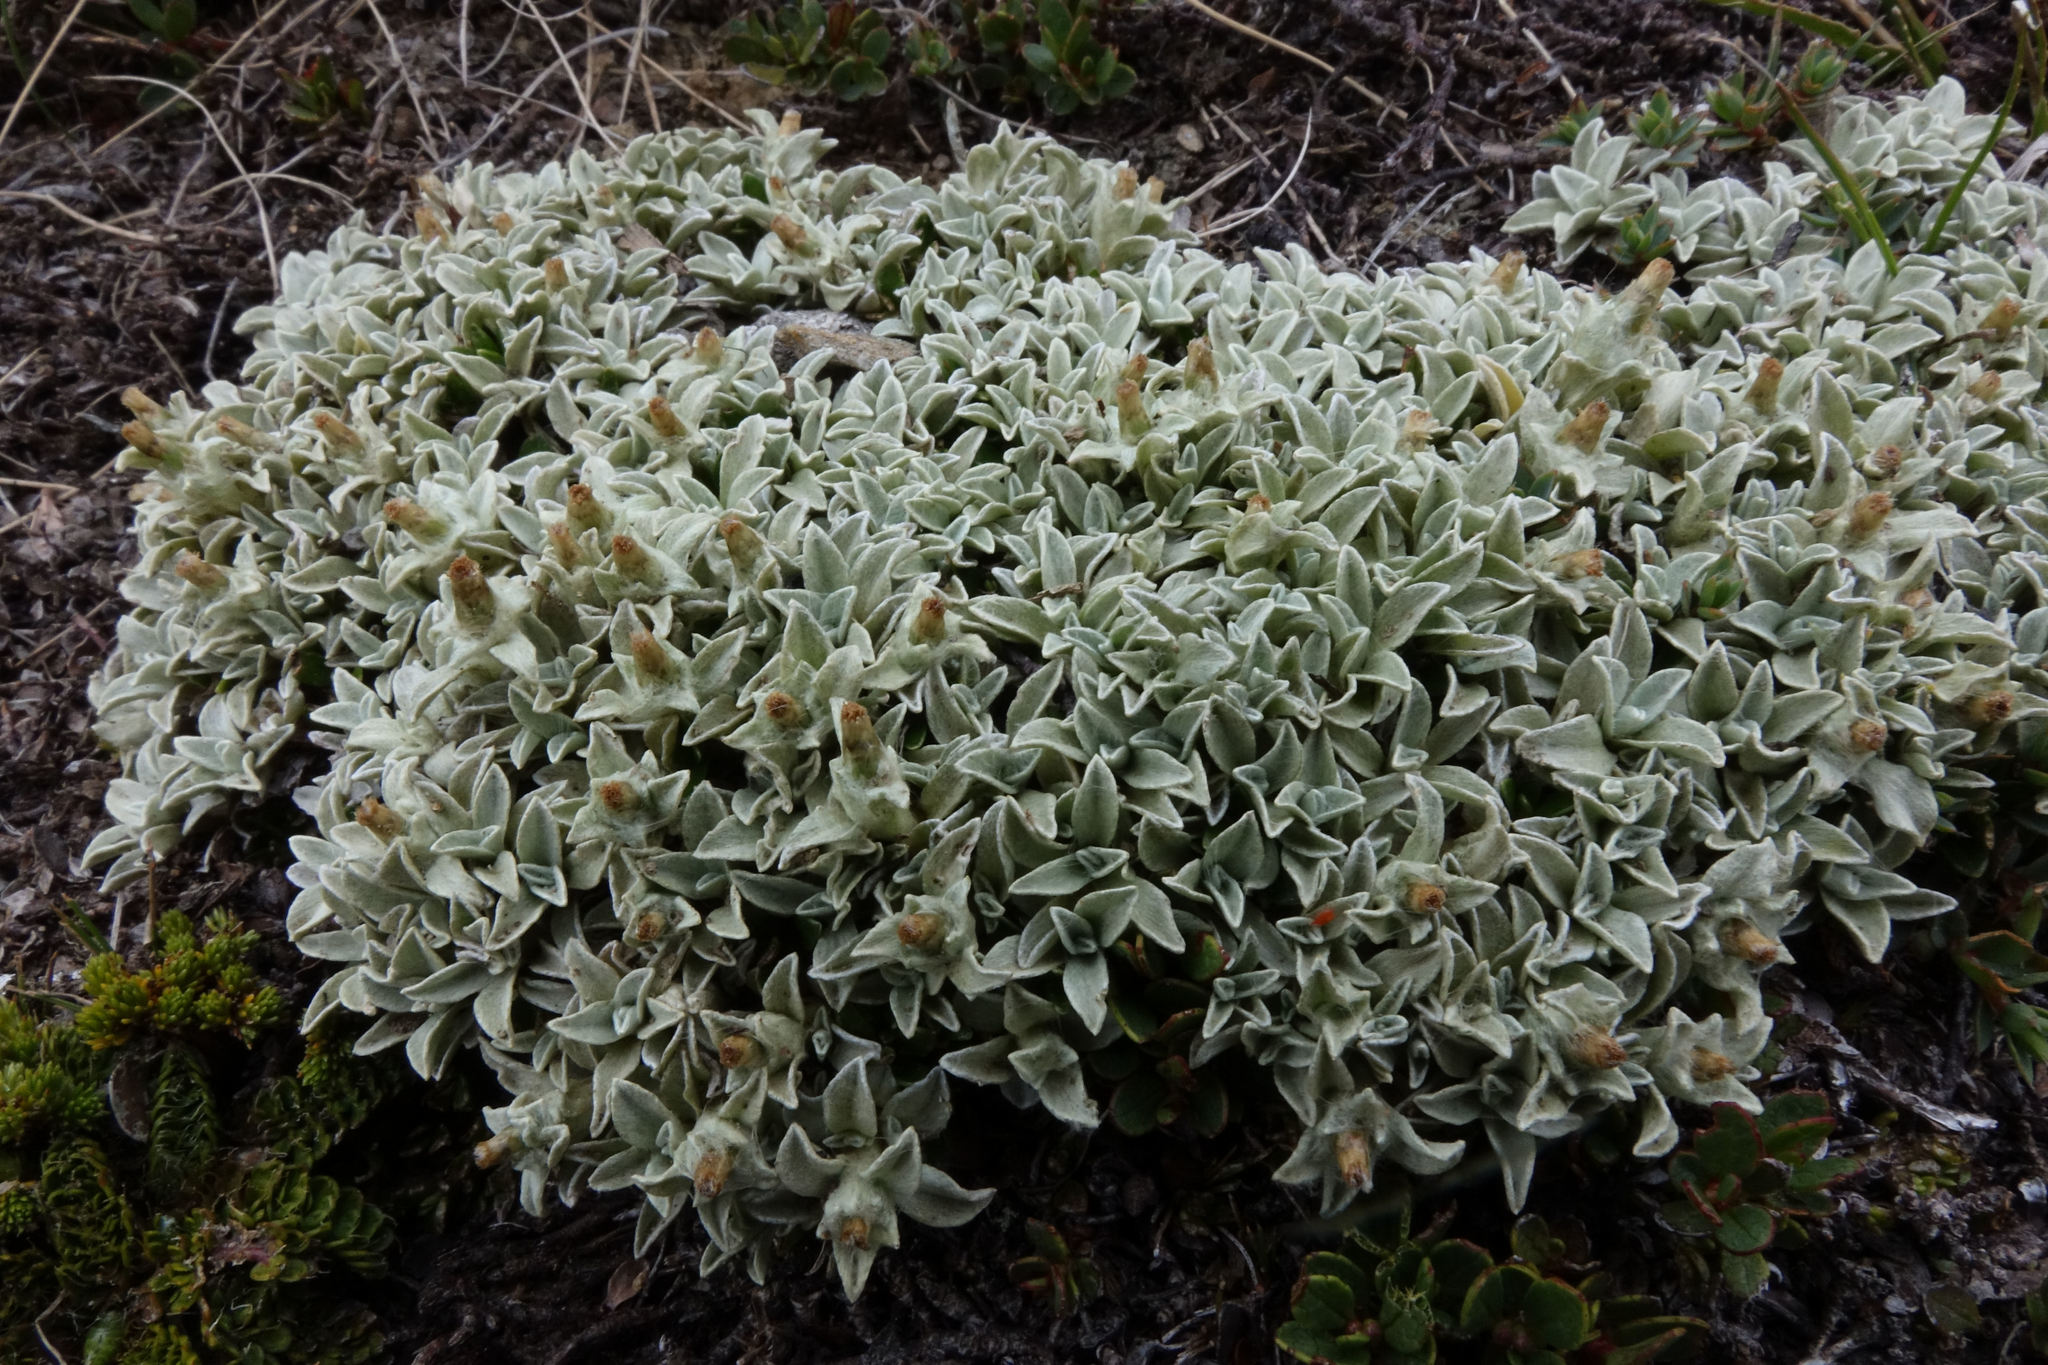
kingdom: Plantae
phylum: Tracheophyta
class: Magnoliopsida
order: Asterales
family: Asteraceae
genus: Argyrotegium
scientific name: Argyrotegium mackayi
